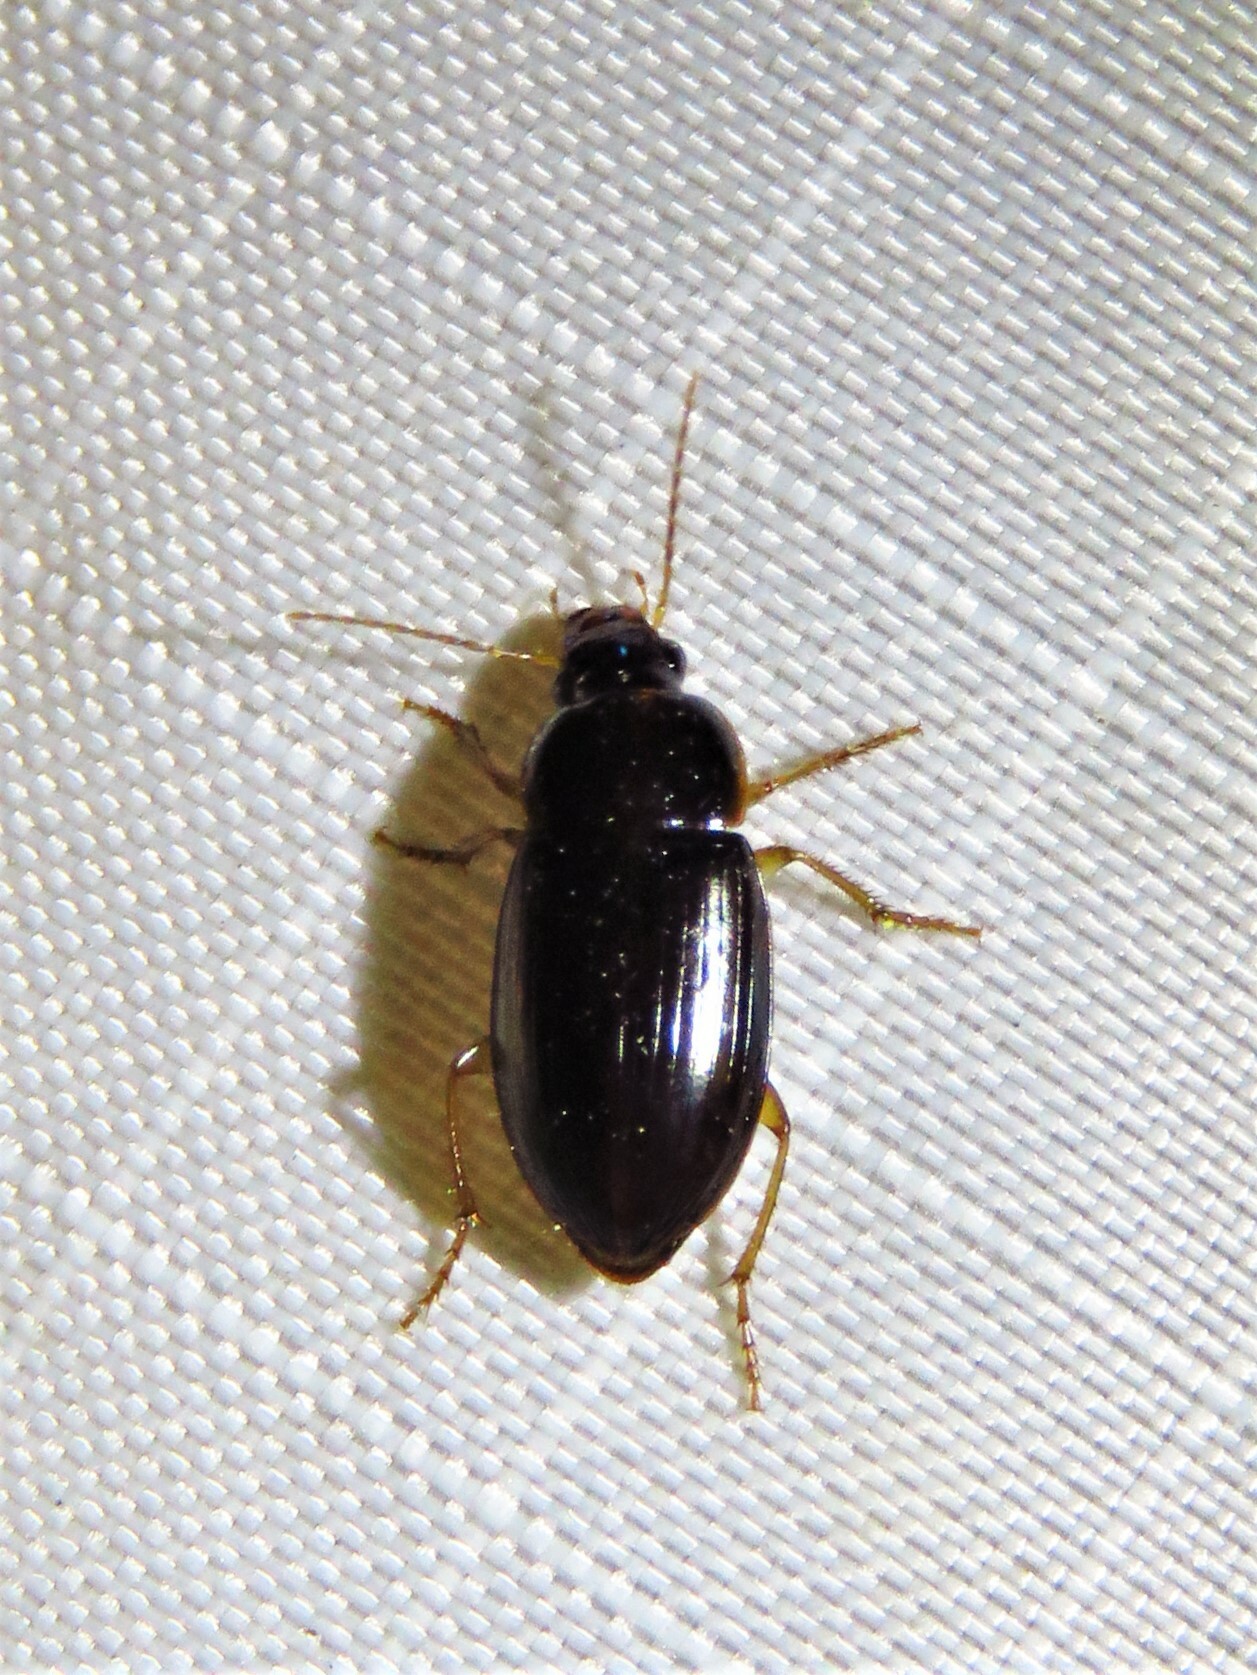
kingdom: Animalia
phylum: Arthropoda
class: Insecta
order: Coleoptera
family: Carabidae
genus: Notiobia
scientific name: Notiobia sayi
